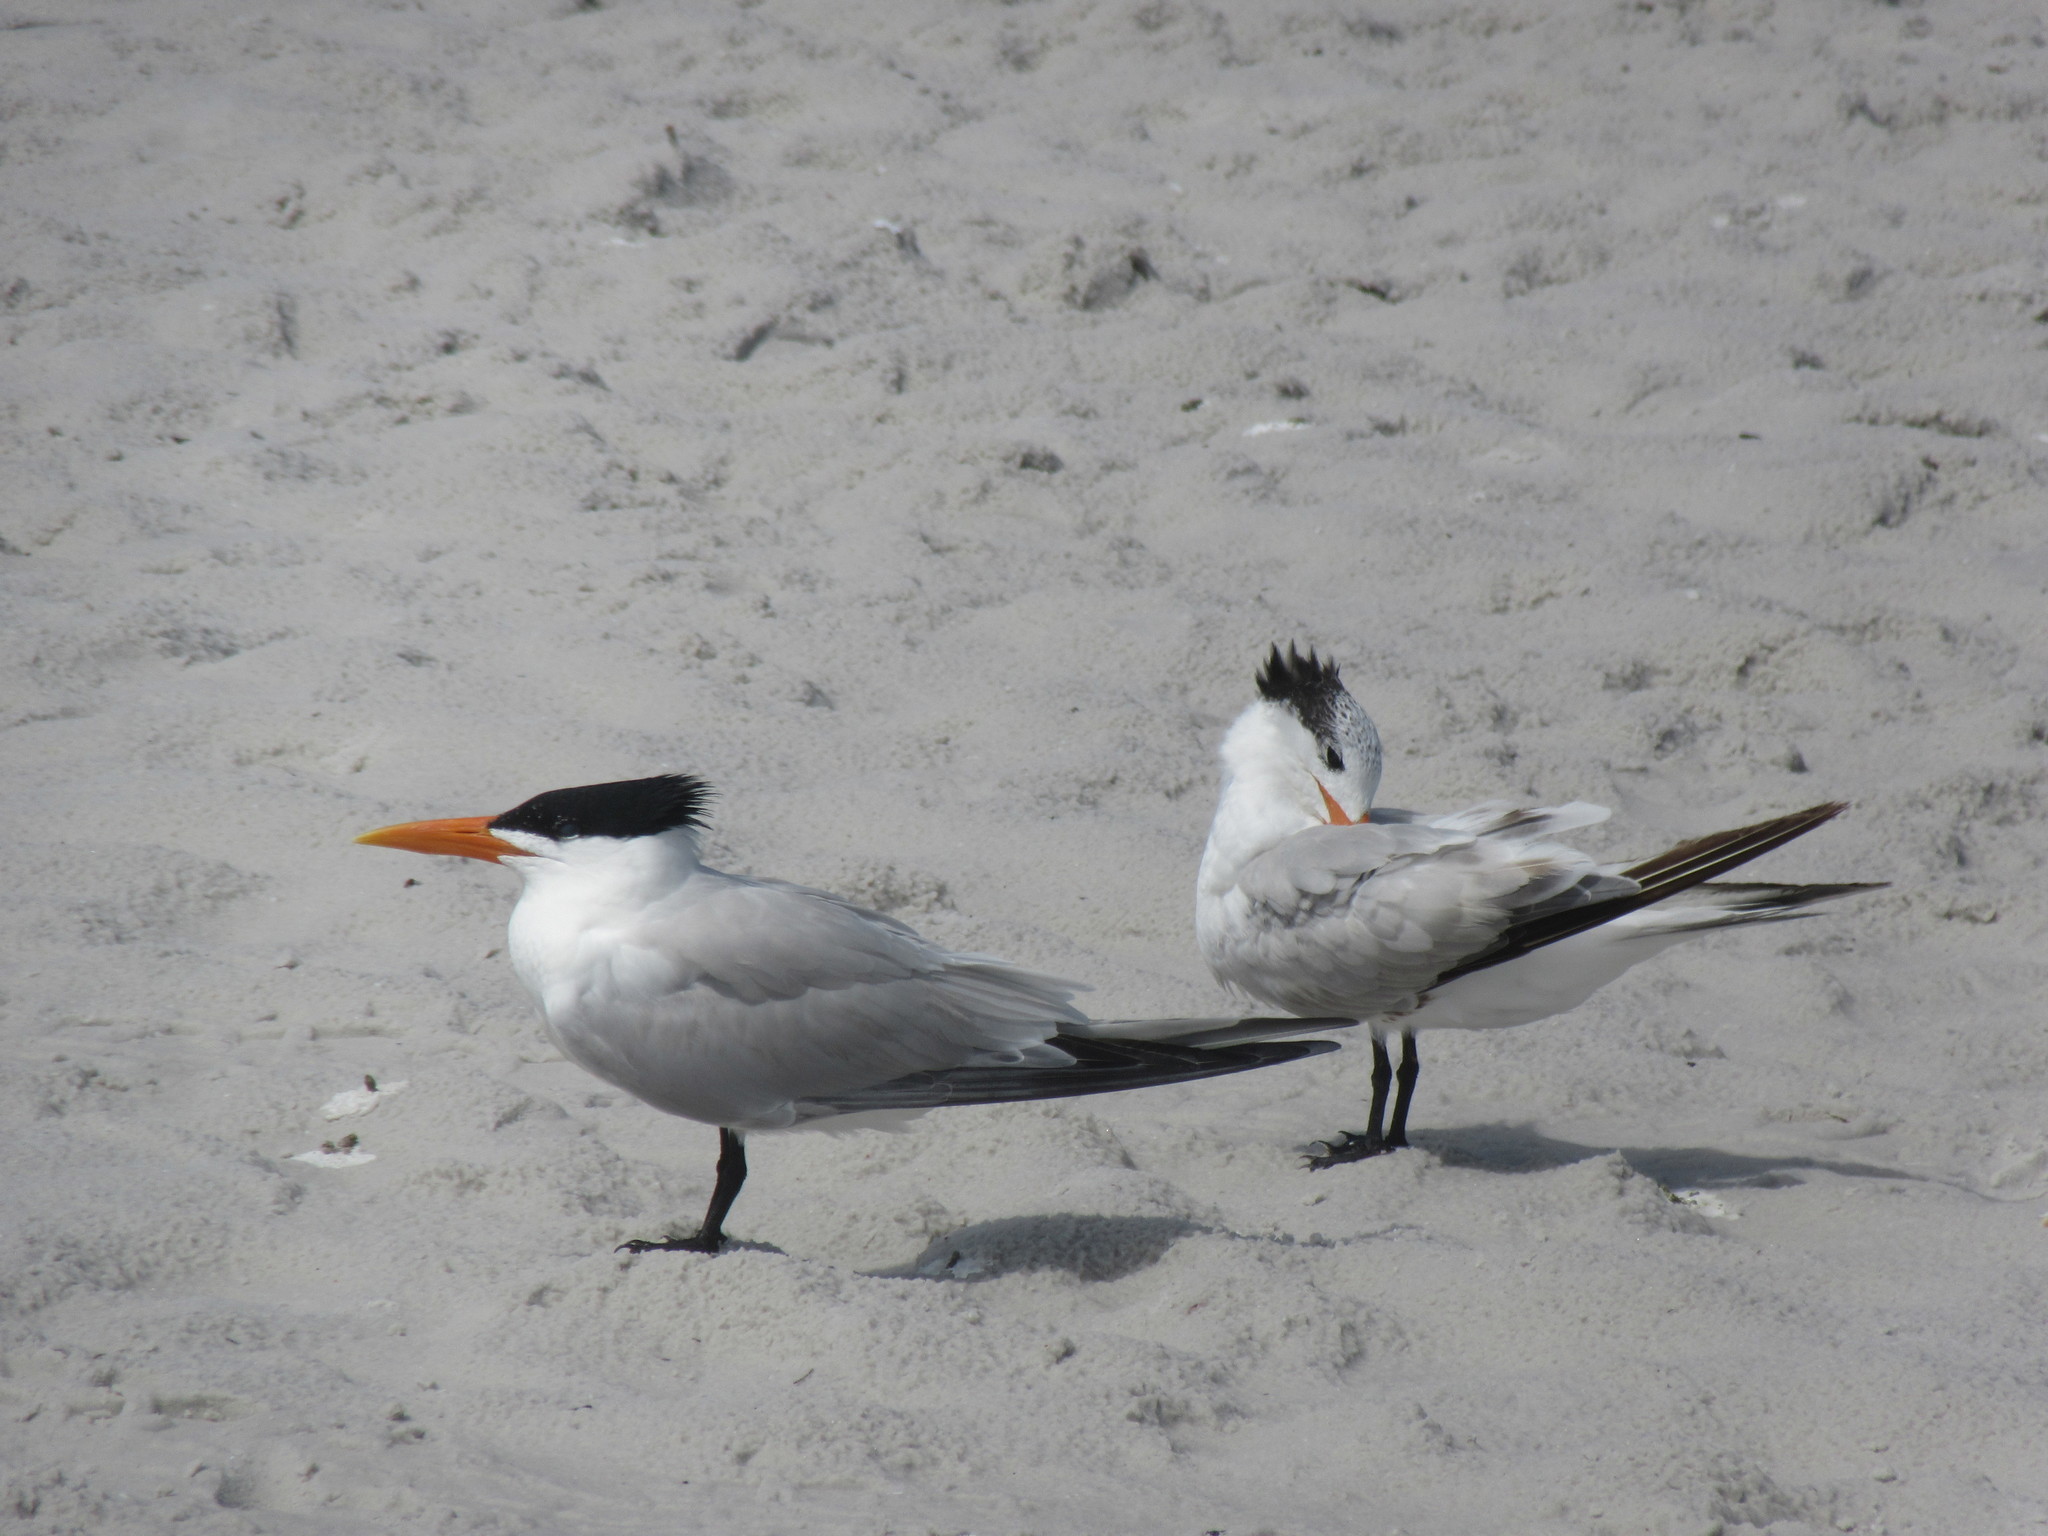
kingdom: Animalia
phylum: Chordata
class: Aves
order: Charadriiformes
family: Laridae
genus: Thalasseus
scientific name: Thalasseus maximus
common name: Royal tern
